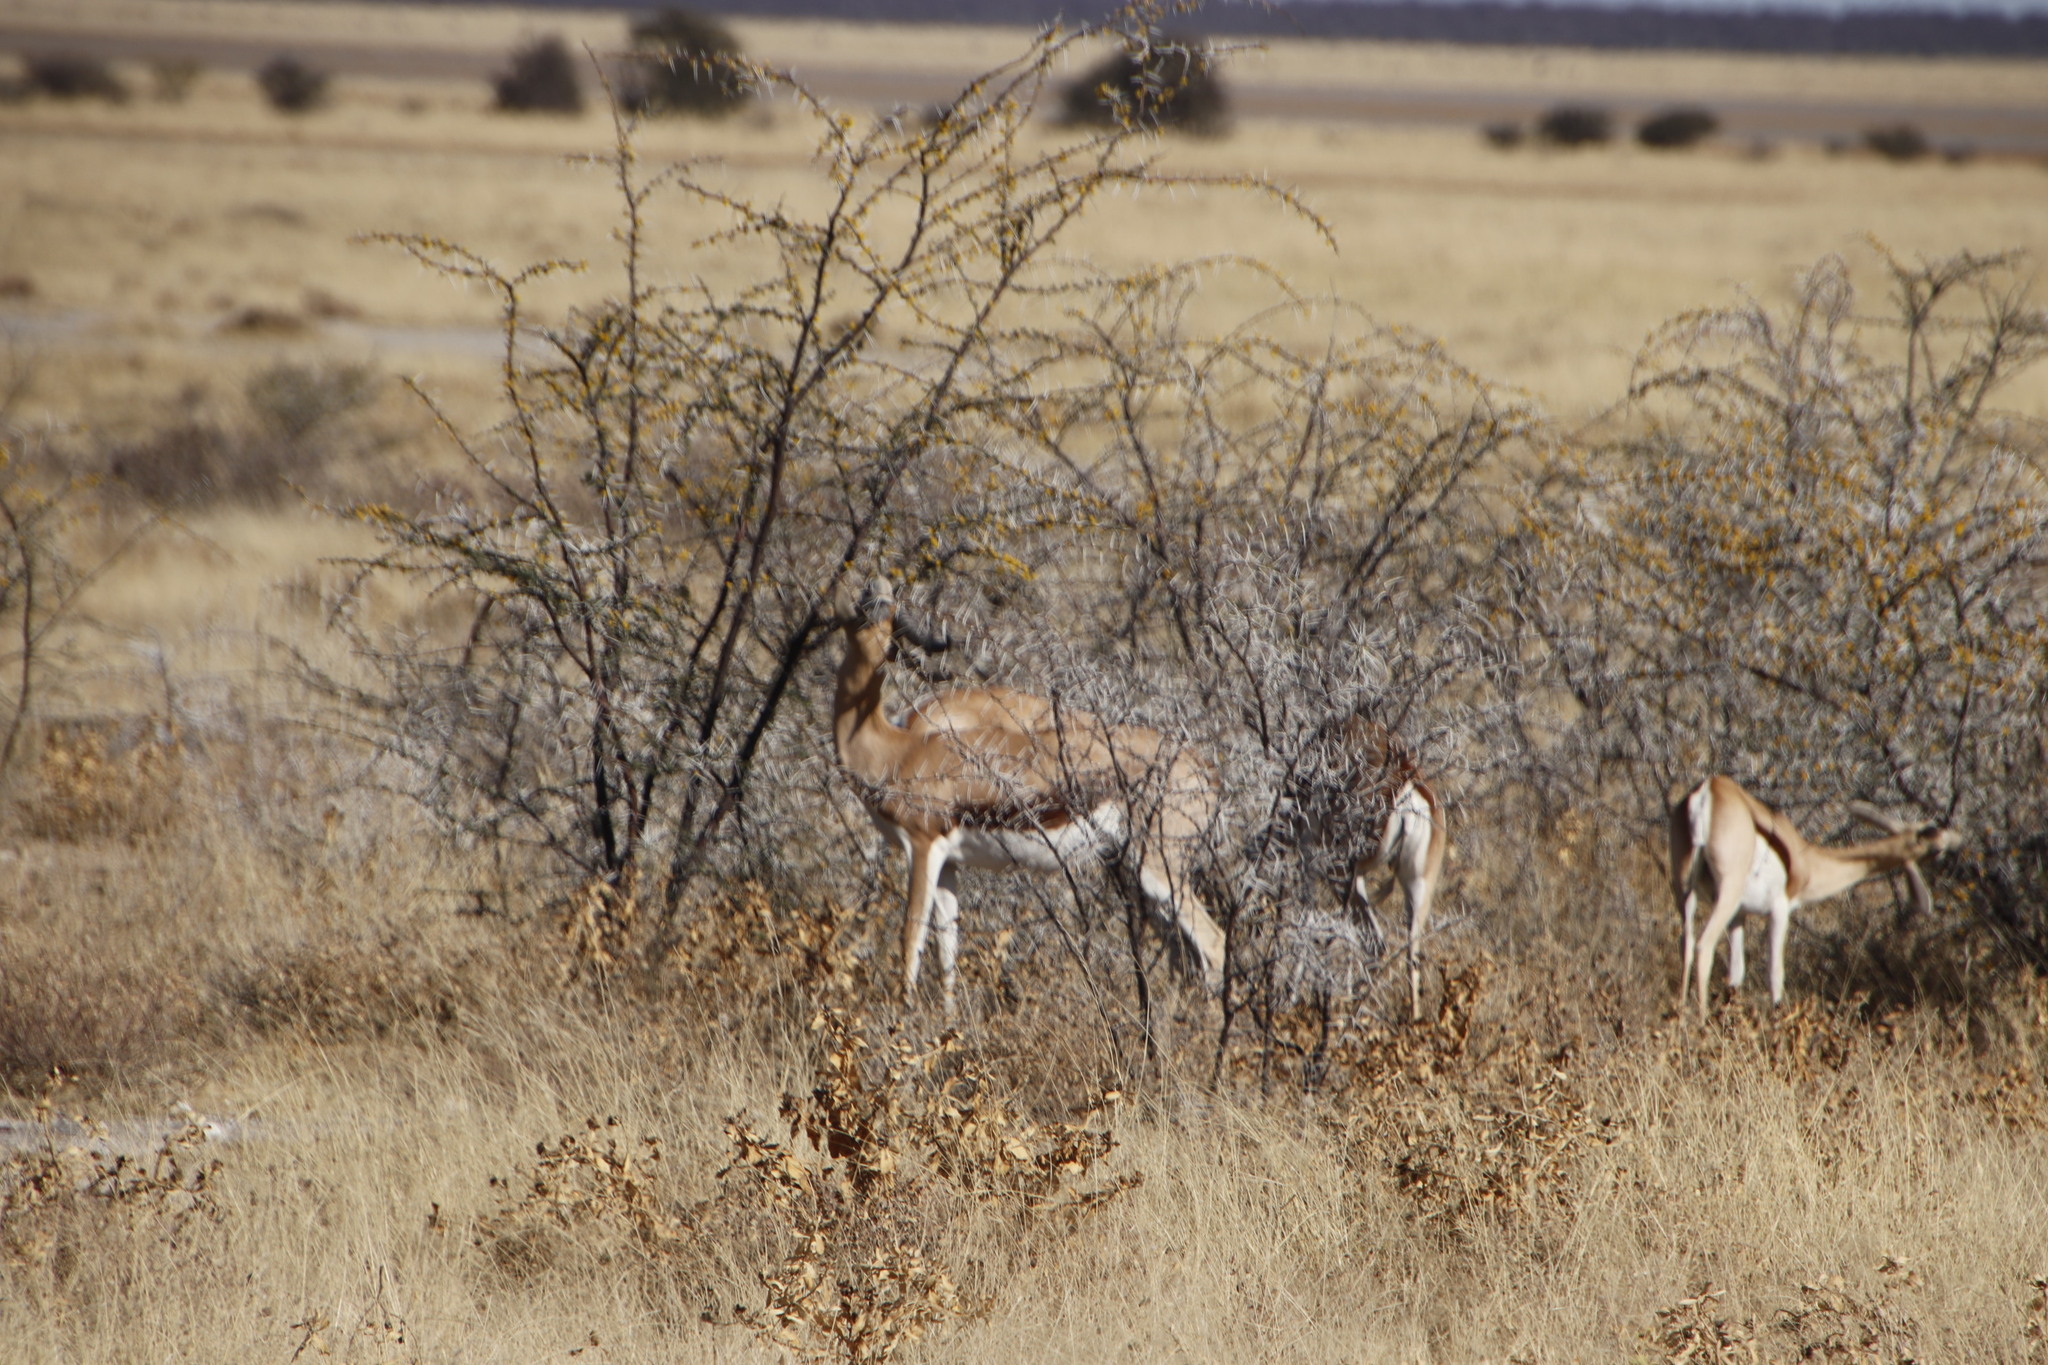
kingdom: Animalia
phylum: Chordata
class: Mammalia
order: Artiodactyla
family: Bovidae
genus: Antidorcas
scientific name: Antidorcas marsupialis
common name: Springbok
